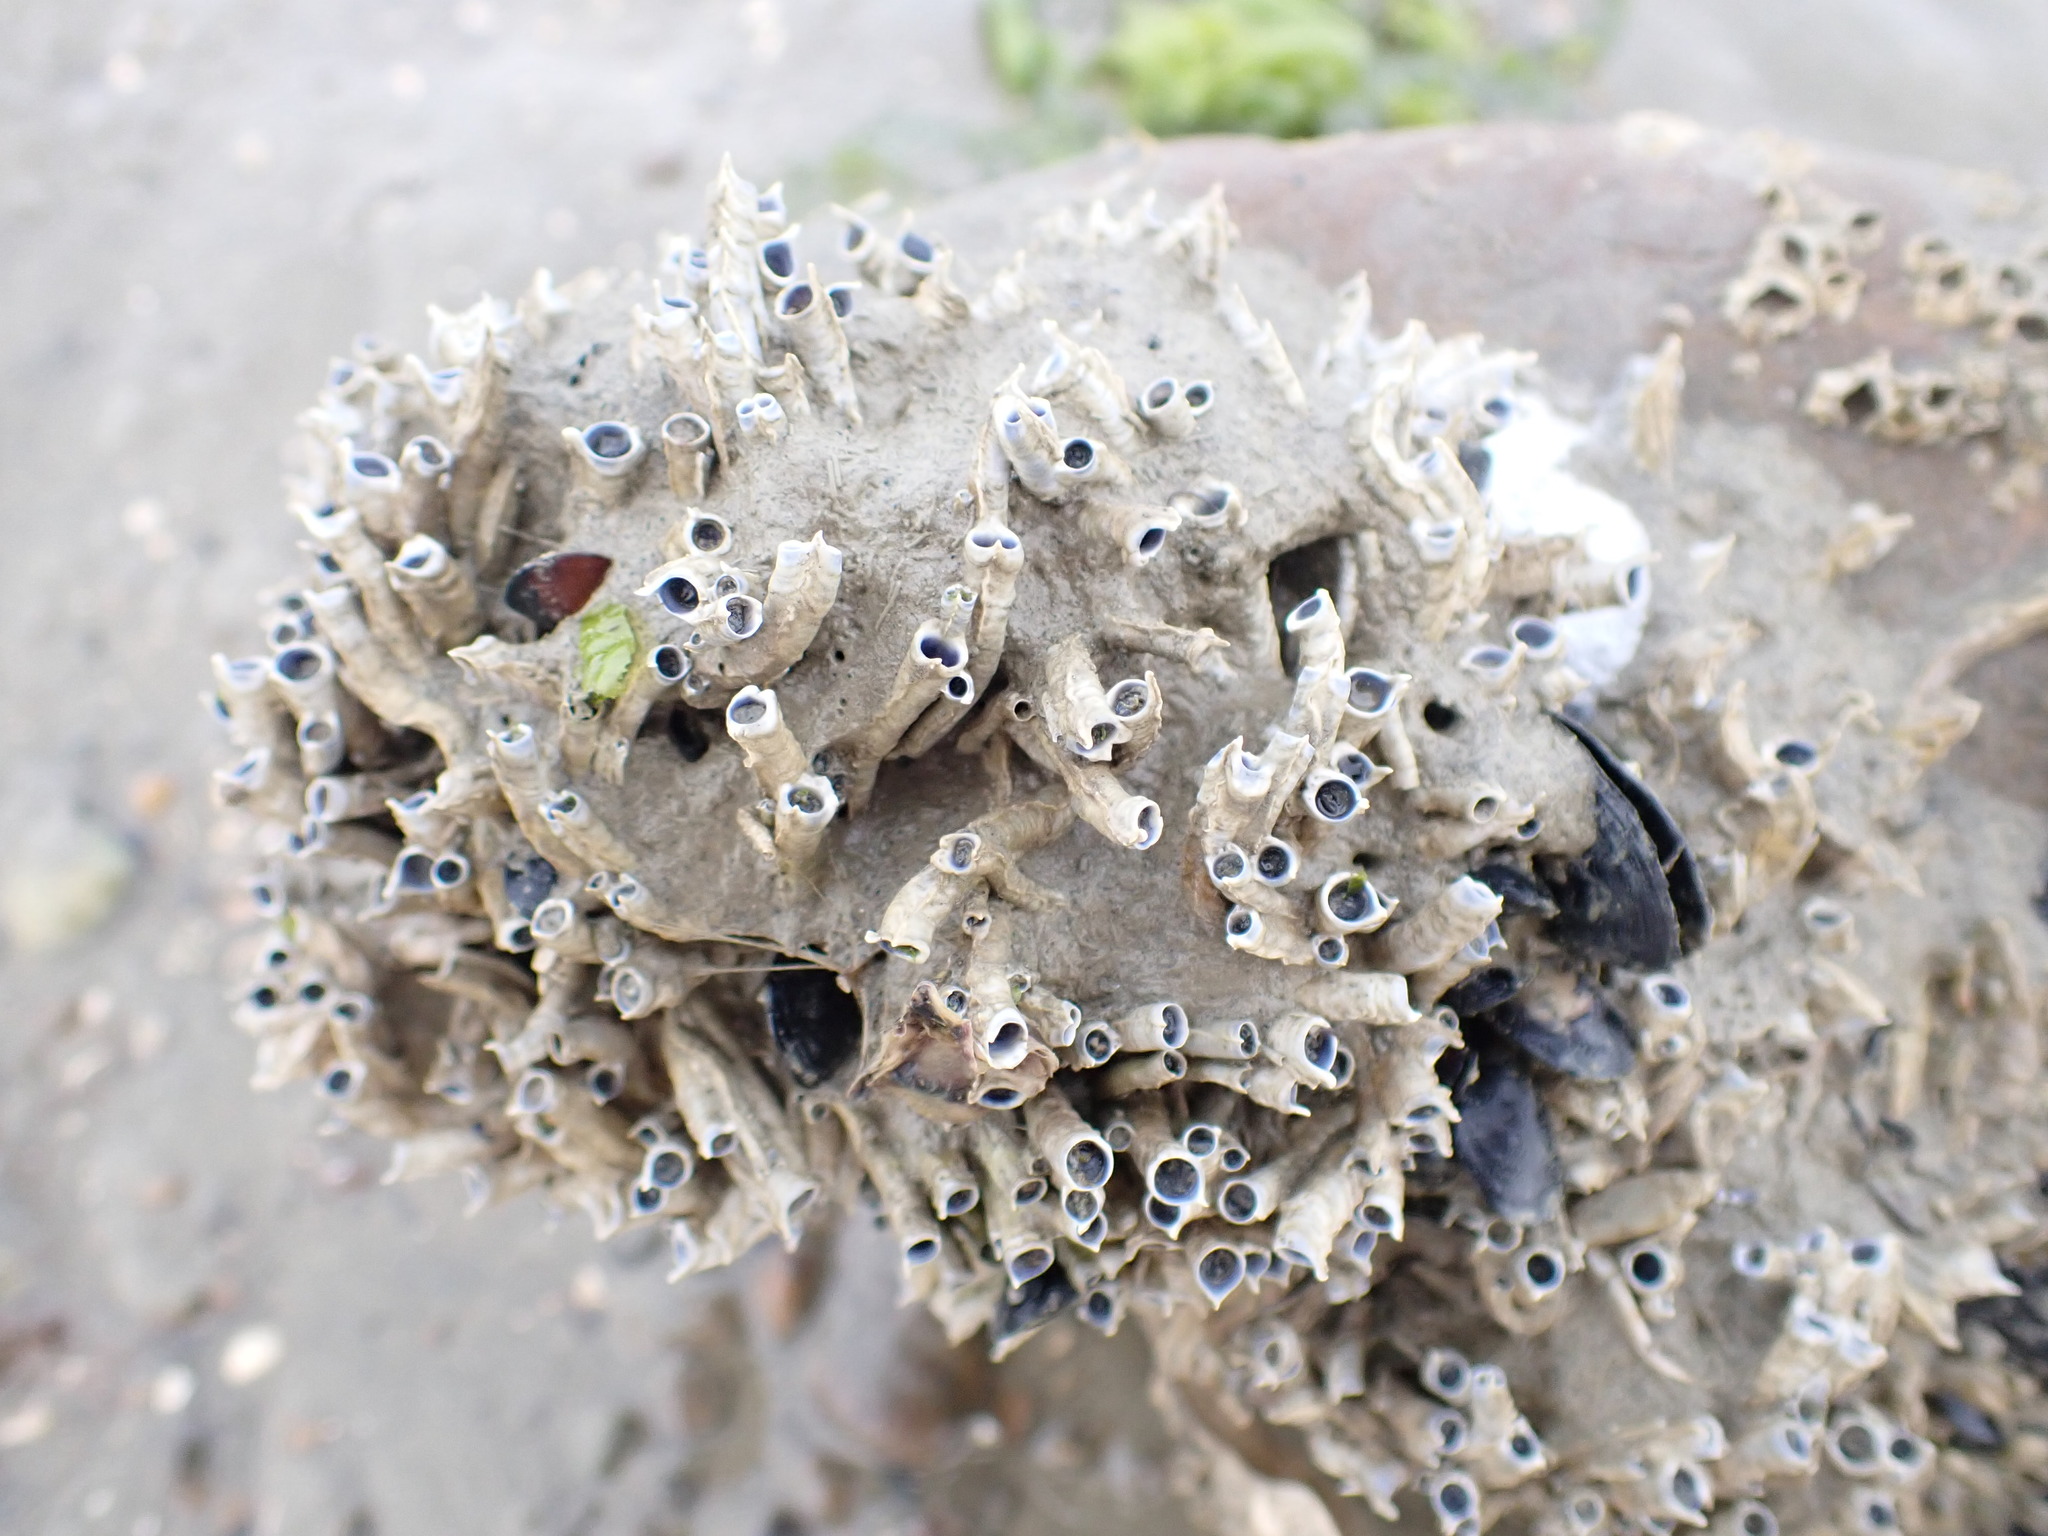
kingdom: Animalia
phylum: Annelida
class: Polychaeta
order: Sabellida
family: Serpulidae
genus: Spirobranchus
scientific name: Spirobranchus cariniferus
